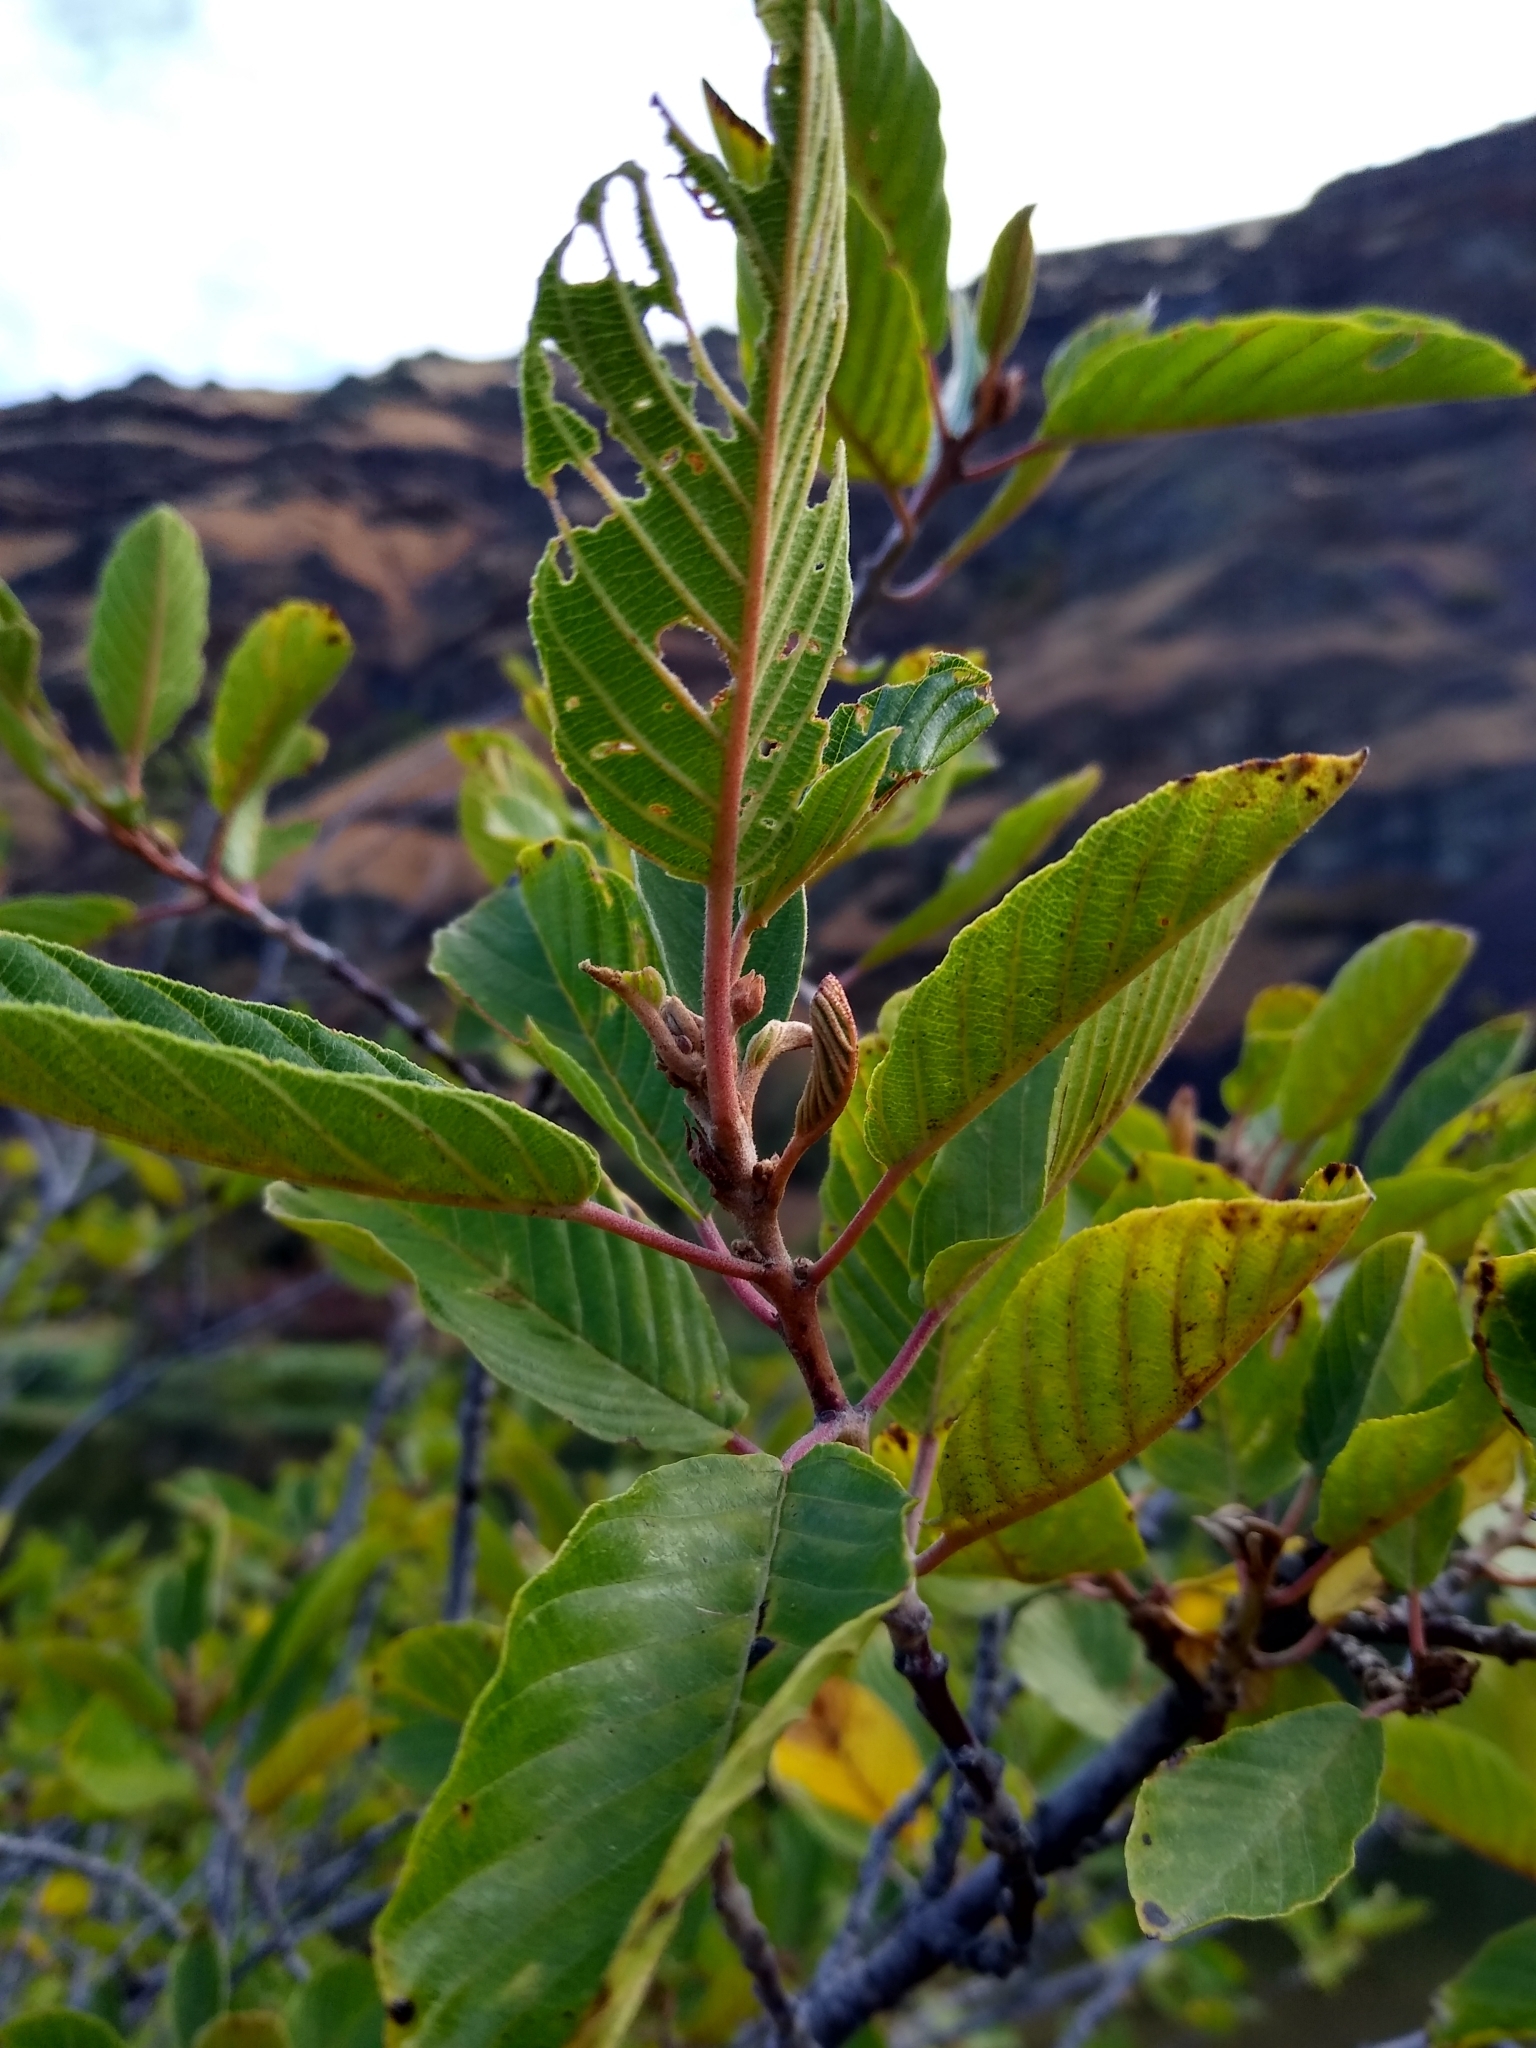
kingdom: Plantae
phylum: Tracheophyta
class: Magnoliopsida
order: Rosales
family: Rhamnaceae
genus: Frangula
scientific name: Frangula purshiana
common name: Cascara buckthorn
